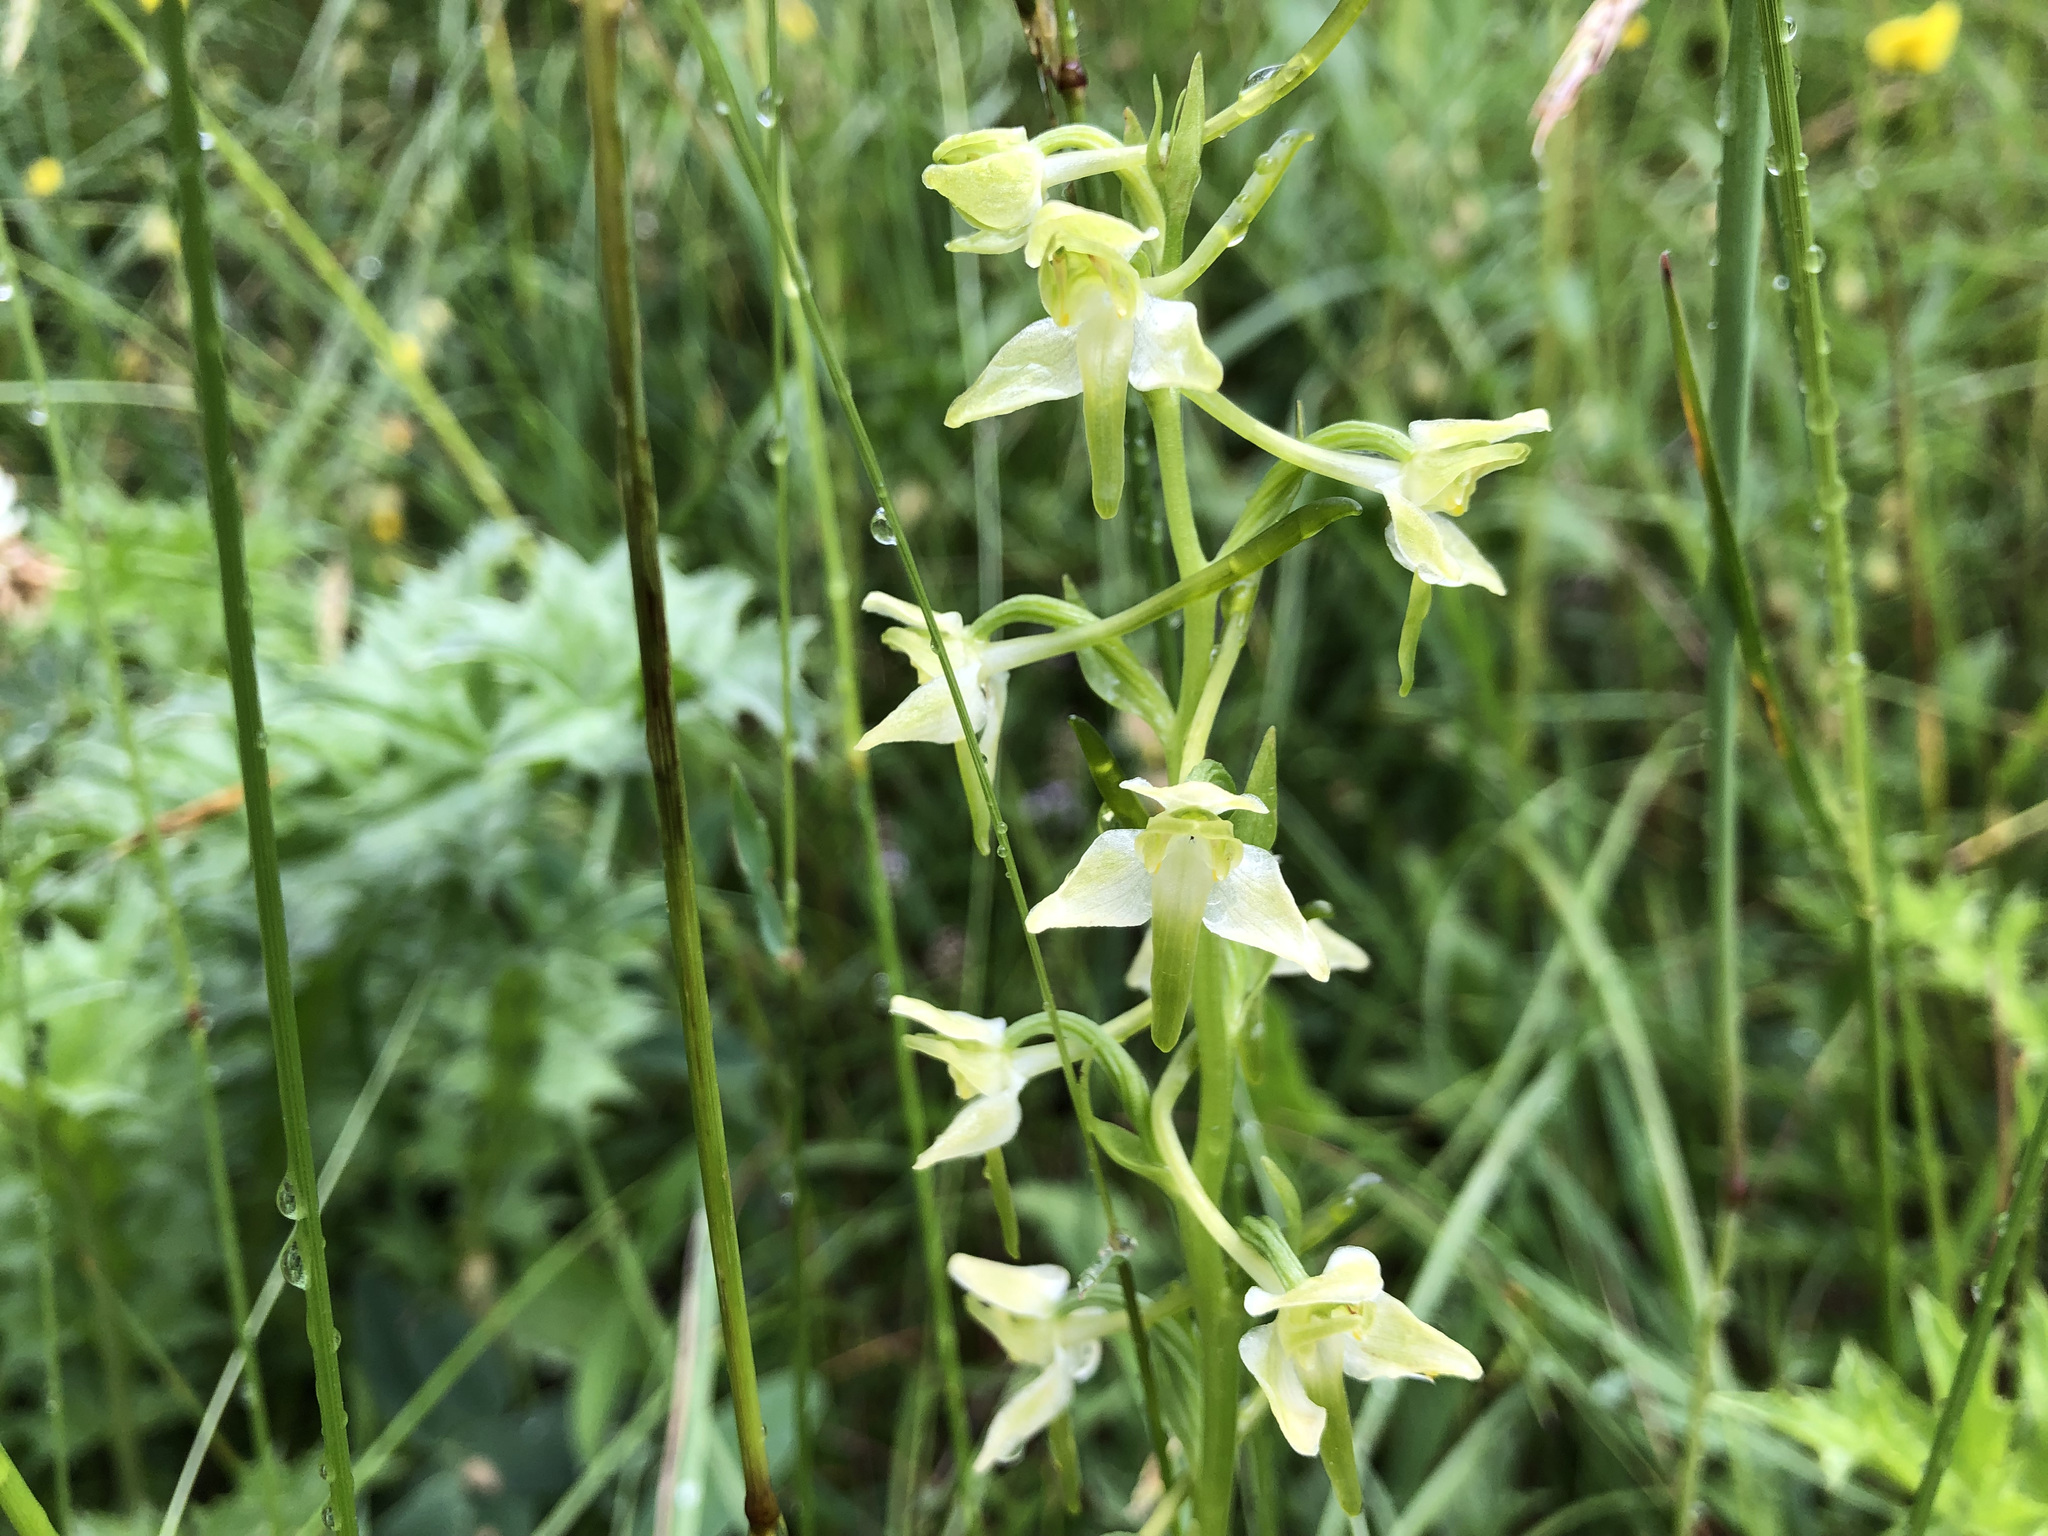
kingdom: Plantae
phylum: Tracheophyta
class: Liliopsida
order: Asparagales
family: Orchidaceae
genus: Platanthera
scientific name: Platanthera chlorantha
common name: Greater butterfly-orchid
